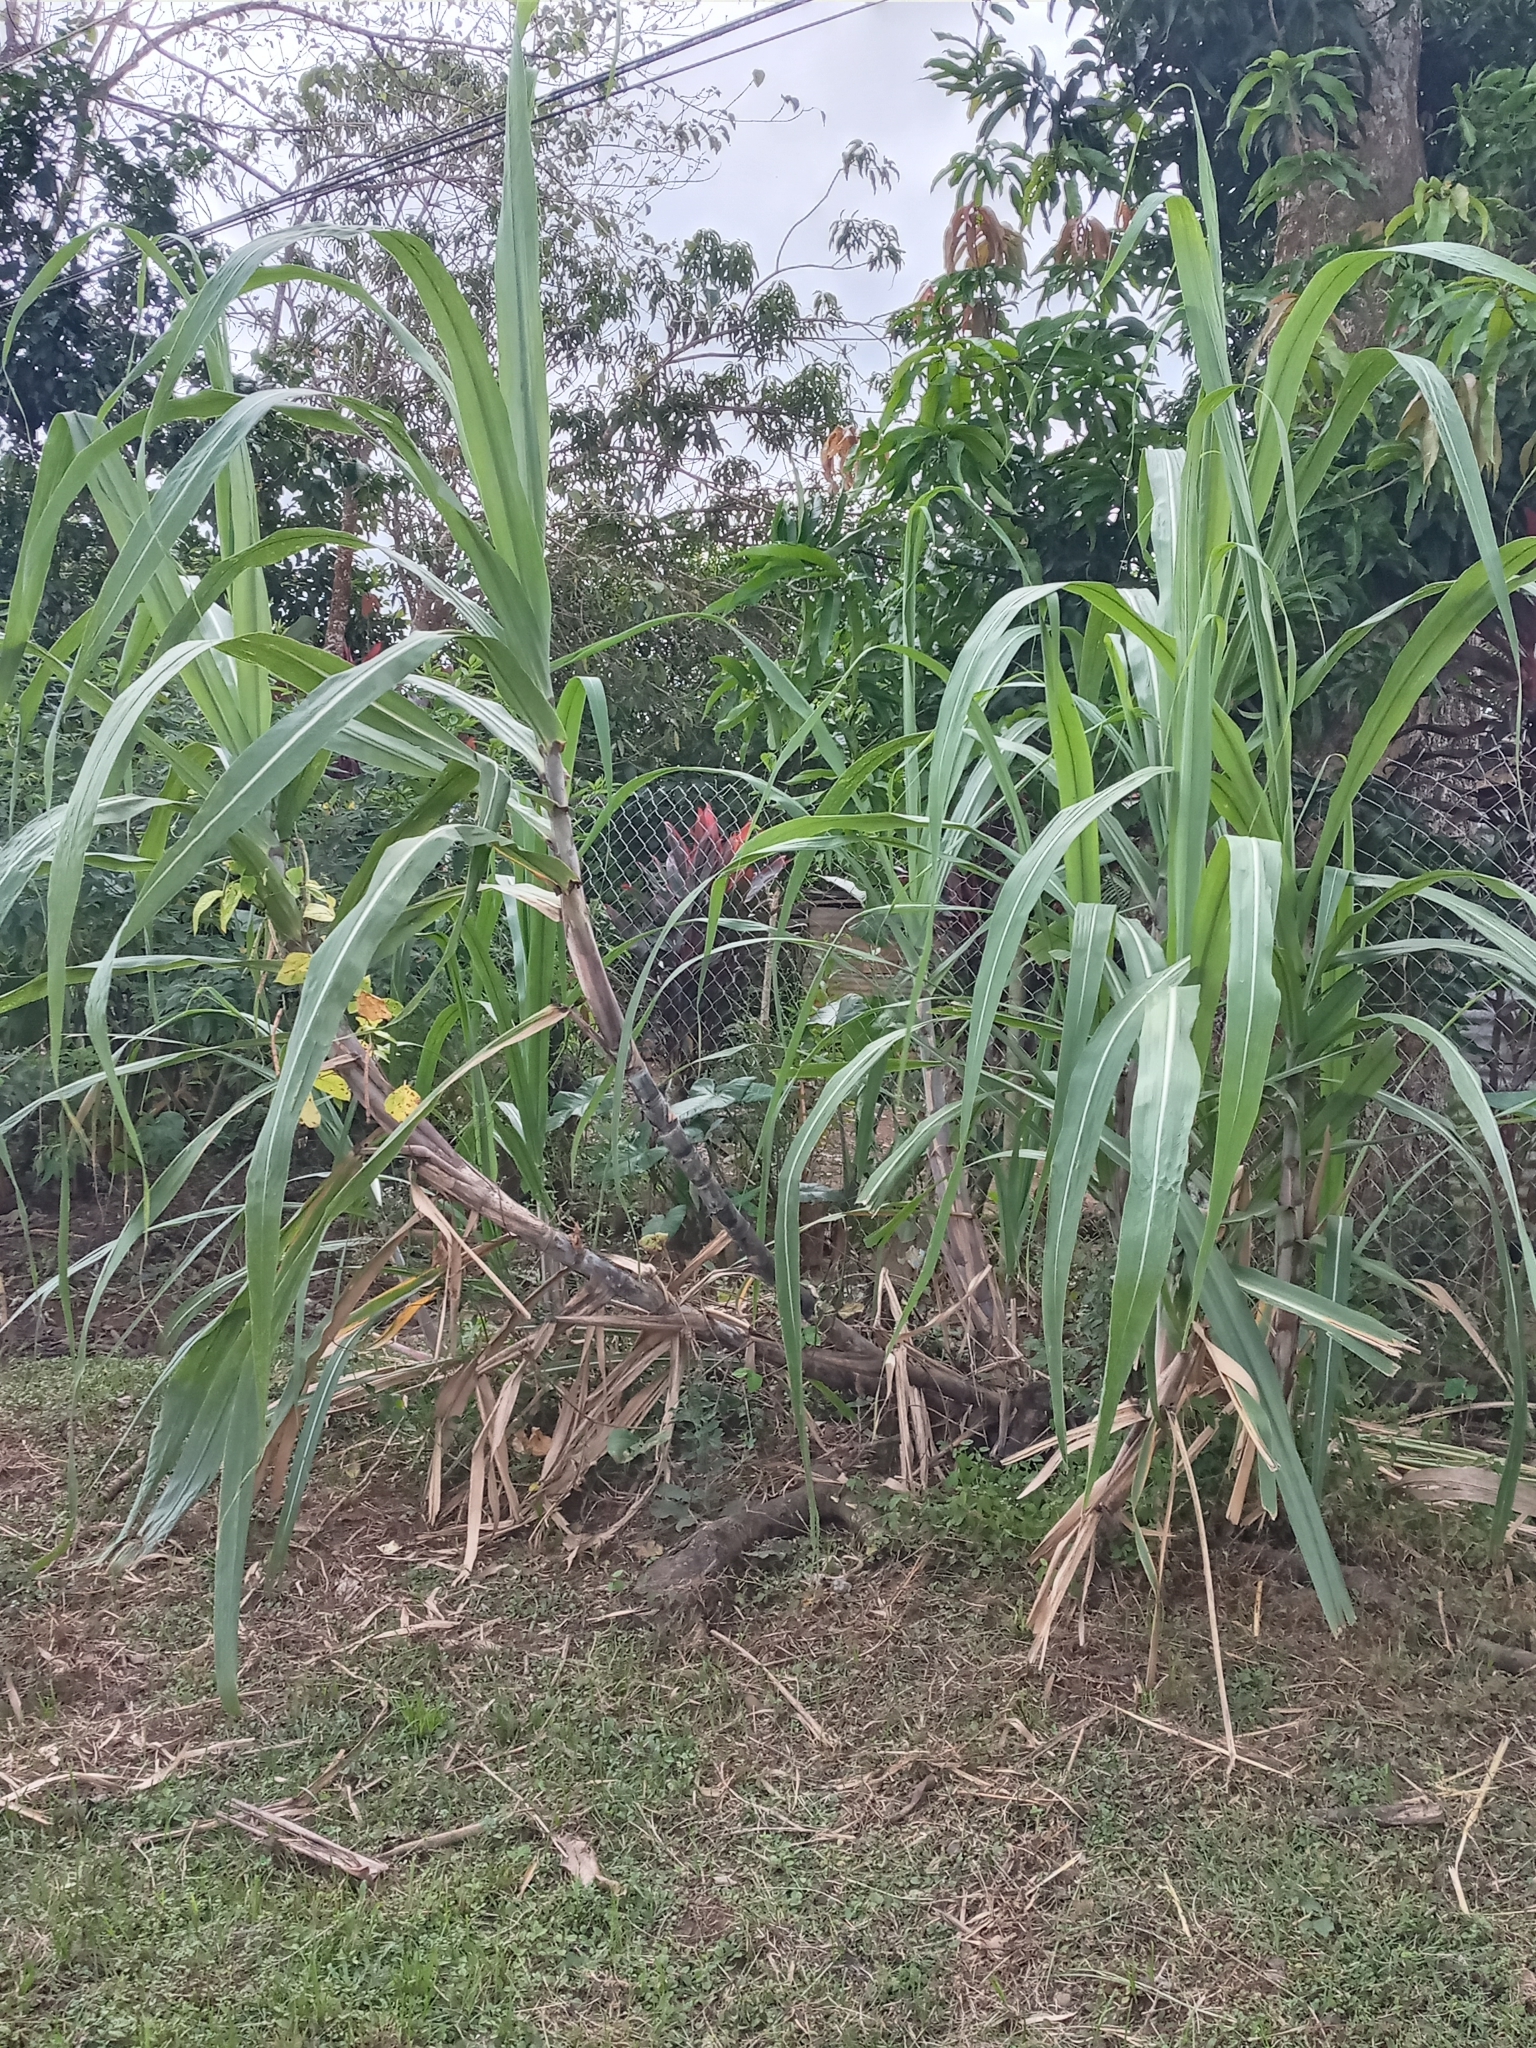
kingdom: Plantae
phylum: Tracheophyta
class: Liliopsida
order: Poales
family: Poaceae
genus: Saccharum
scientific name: Saccharum officinarum
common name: Sugarcane
